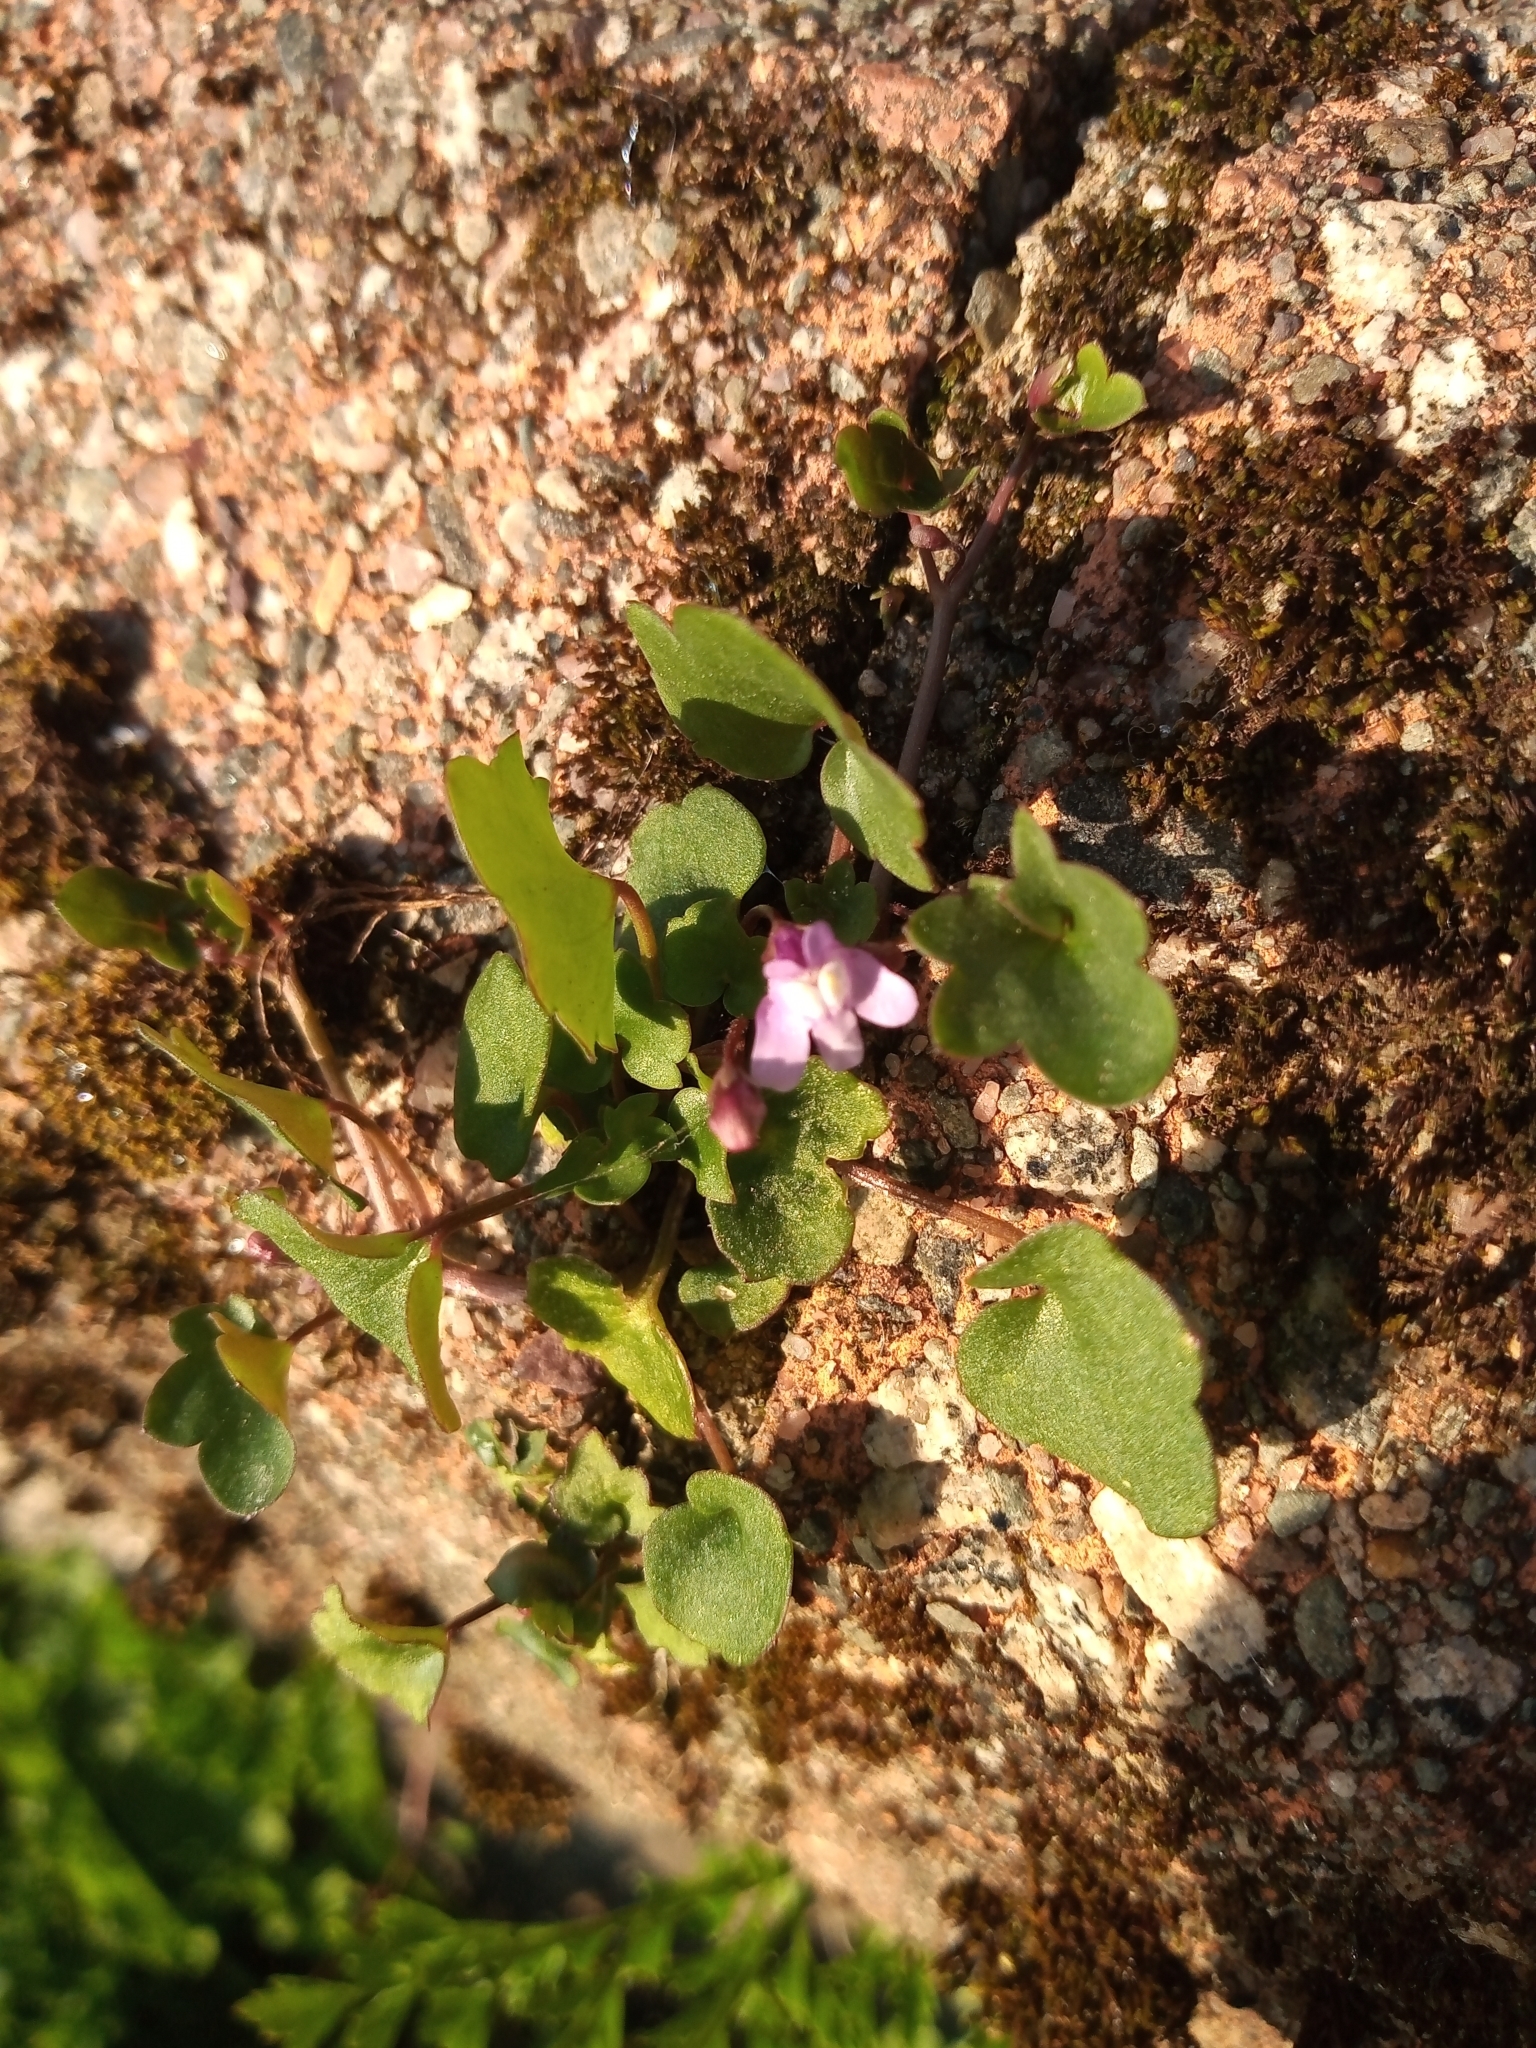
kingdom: Plantae
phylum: Tracheophyta
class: Magnoliopsida
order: Lamiales
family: Plantaginaceae
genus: Cymbalaria
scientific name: Cymbalaria muralis
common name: Ivy-leaved toadflax
